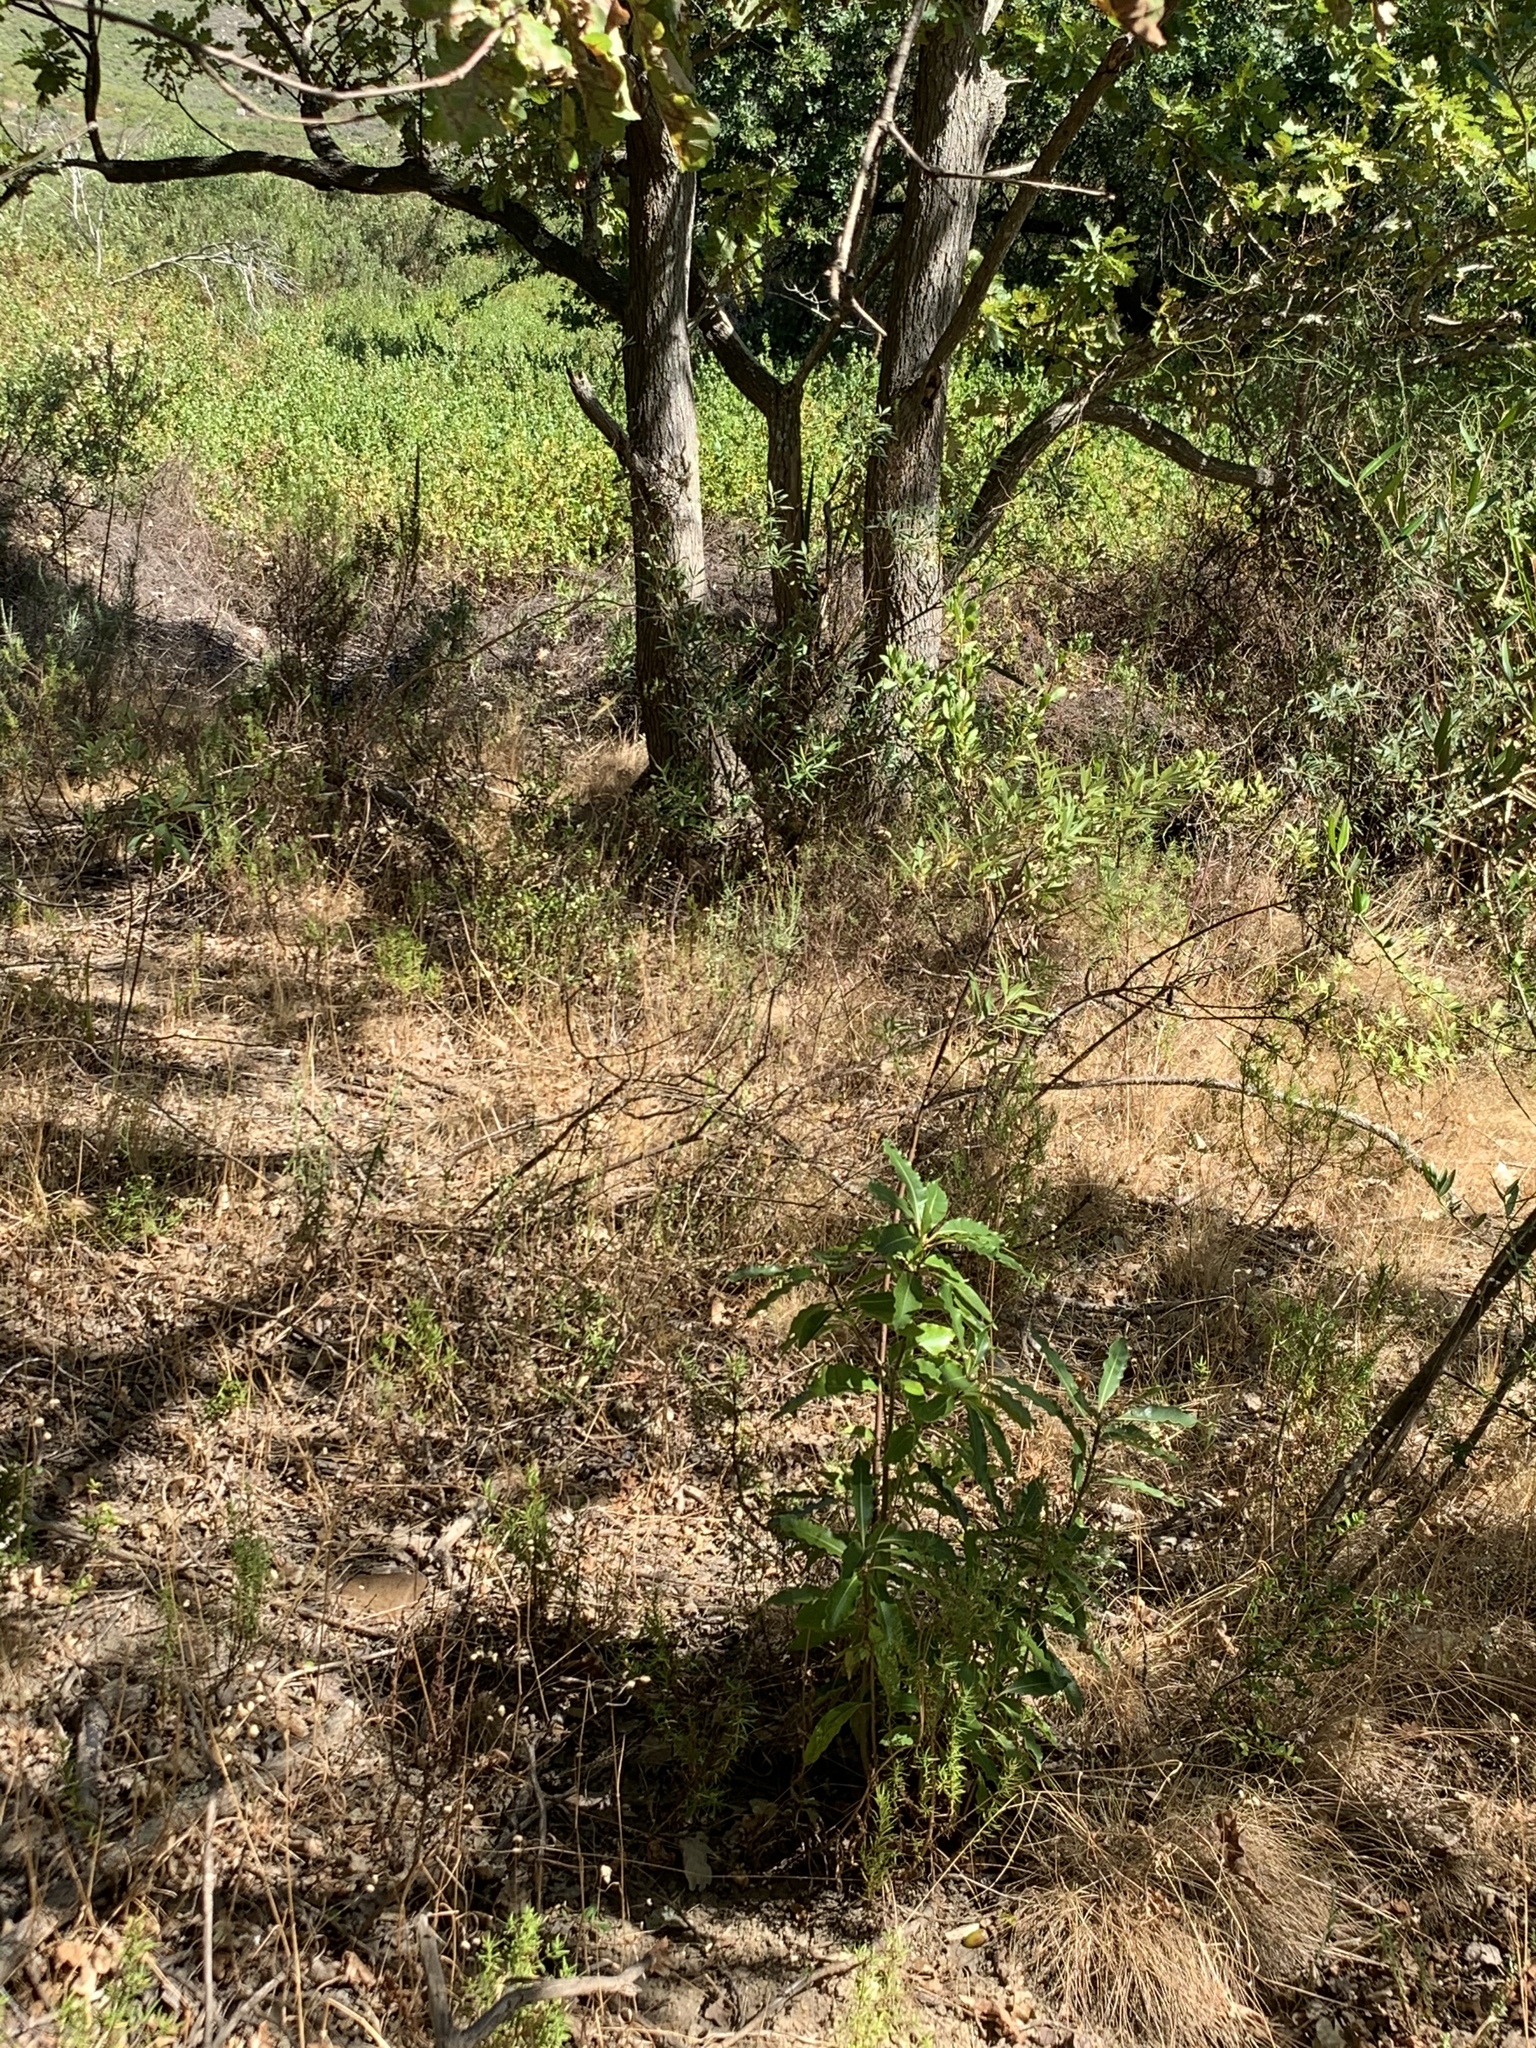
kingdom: Plantae
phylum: Tracheophyta
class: Magnoliopsida
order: Apiales
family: Pittosporaceae
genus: Pittosporum
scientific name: Pittosporum undulatum
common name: Australian cheesewood
